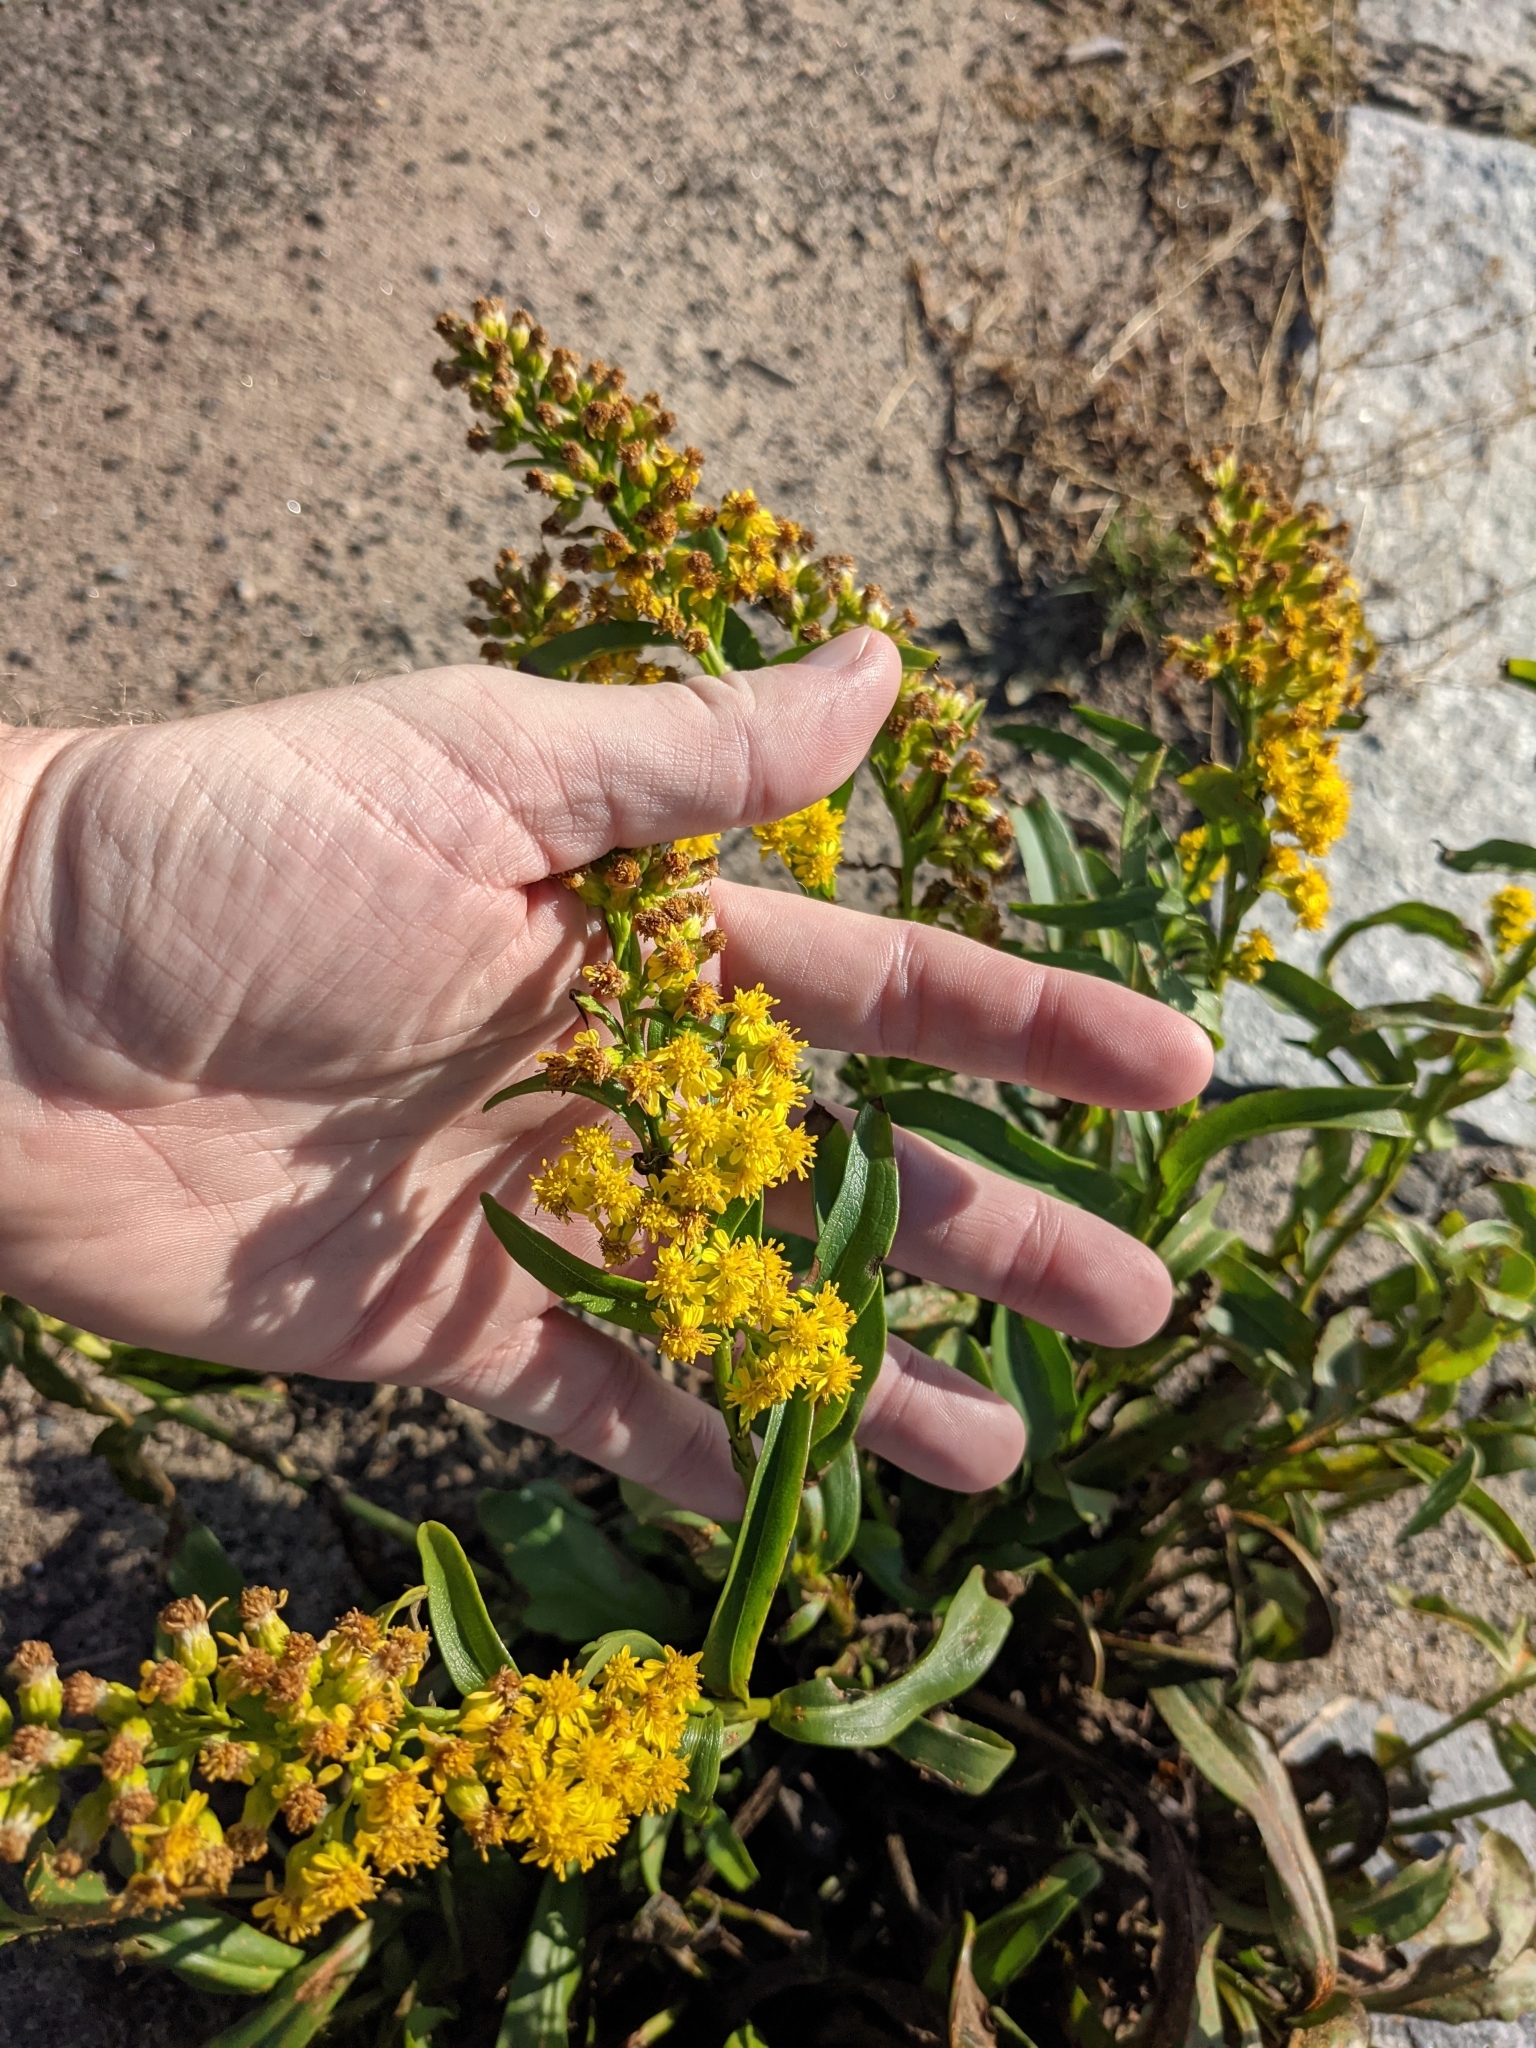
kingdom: Plantae
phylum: Tracheophyta
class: Magnoliopsida
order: Asterales
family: Asteraceae
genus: Solidago
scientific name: Solidago sempervirens
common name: Salt-marsh goldenrod
